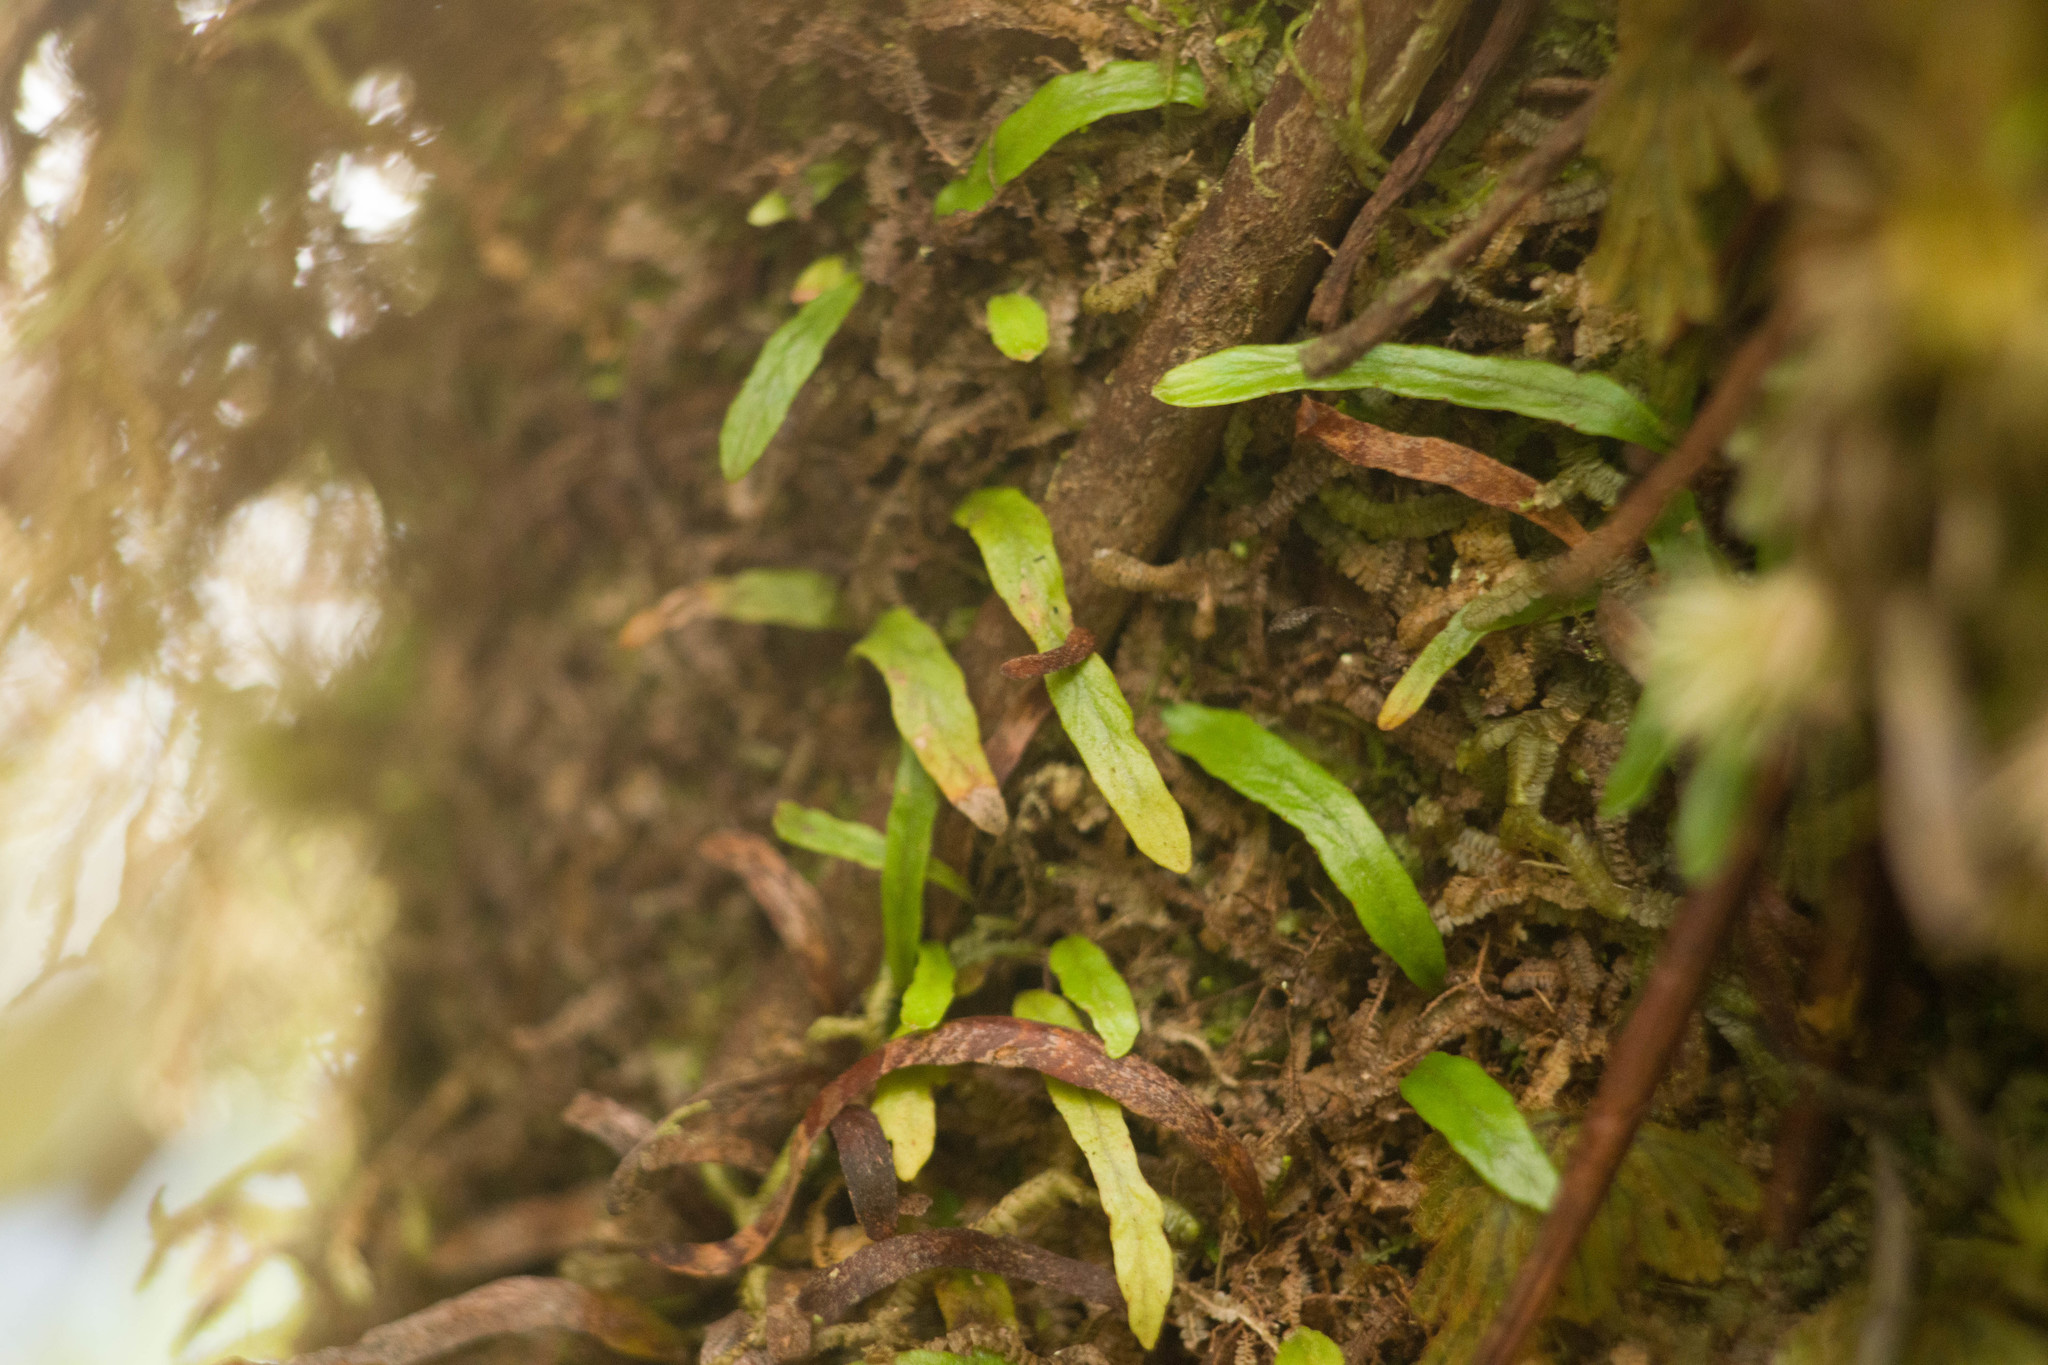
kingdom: Plantae
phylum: Tracheophyta
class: Polypodiopsida
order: Polypodiales
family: Polypodiaceae
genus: Adenophorus
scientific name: Adenophorus tenellus
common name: Kolokolo
